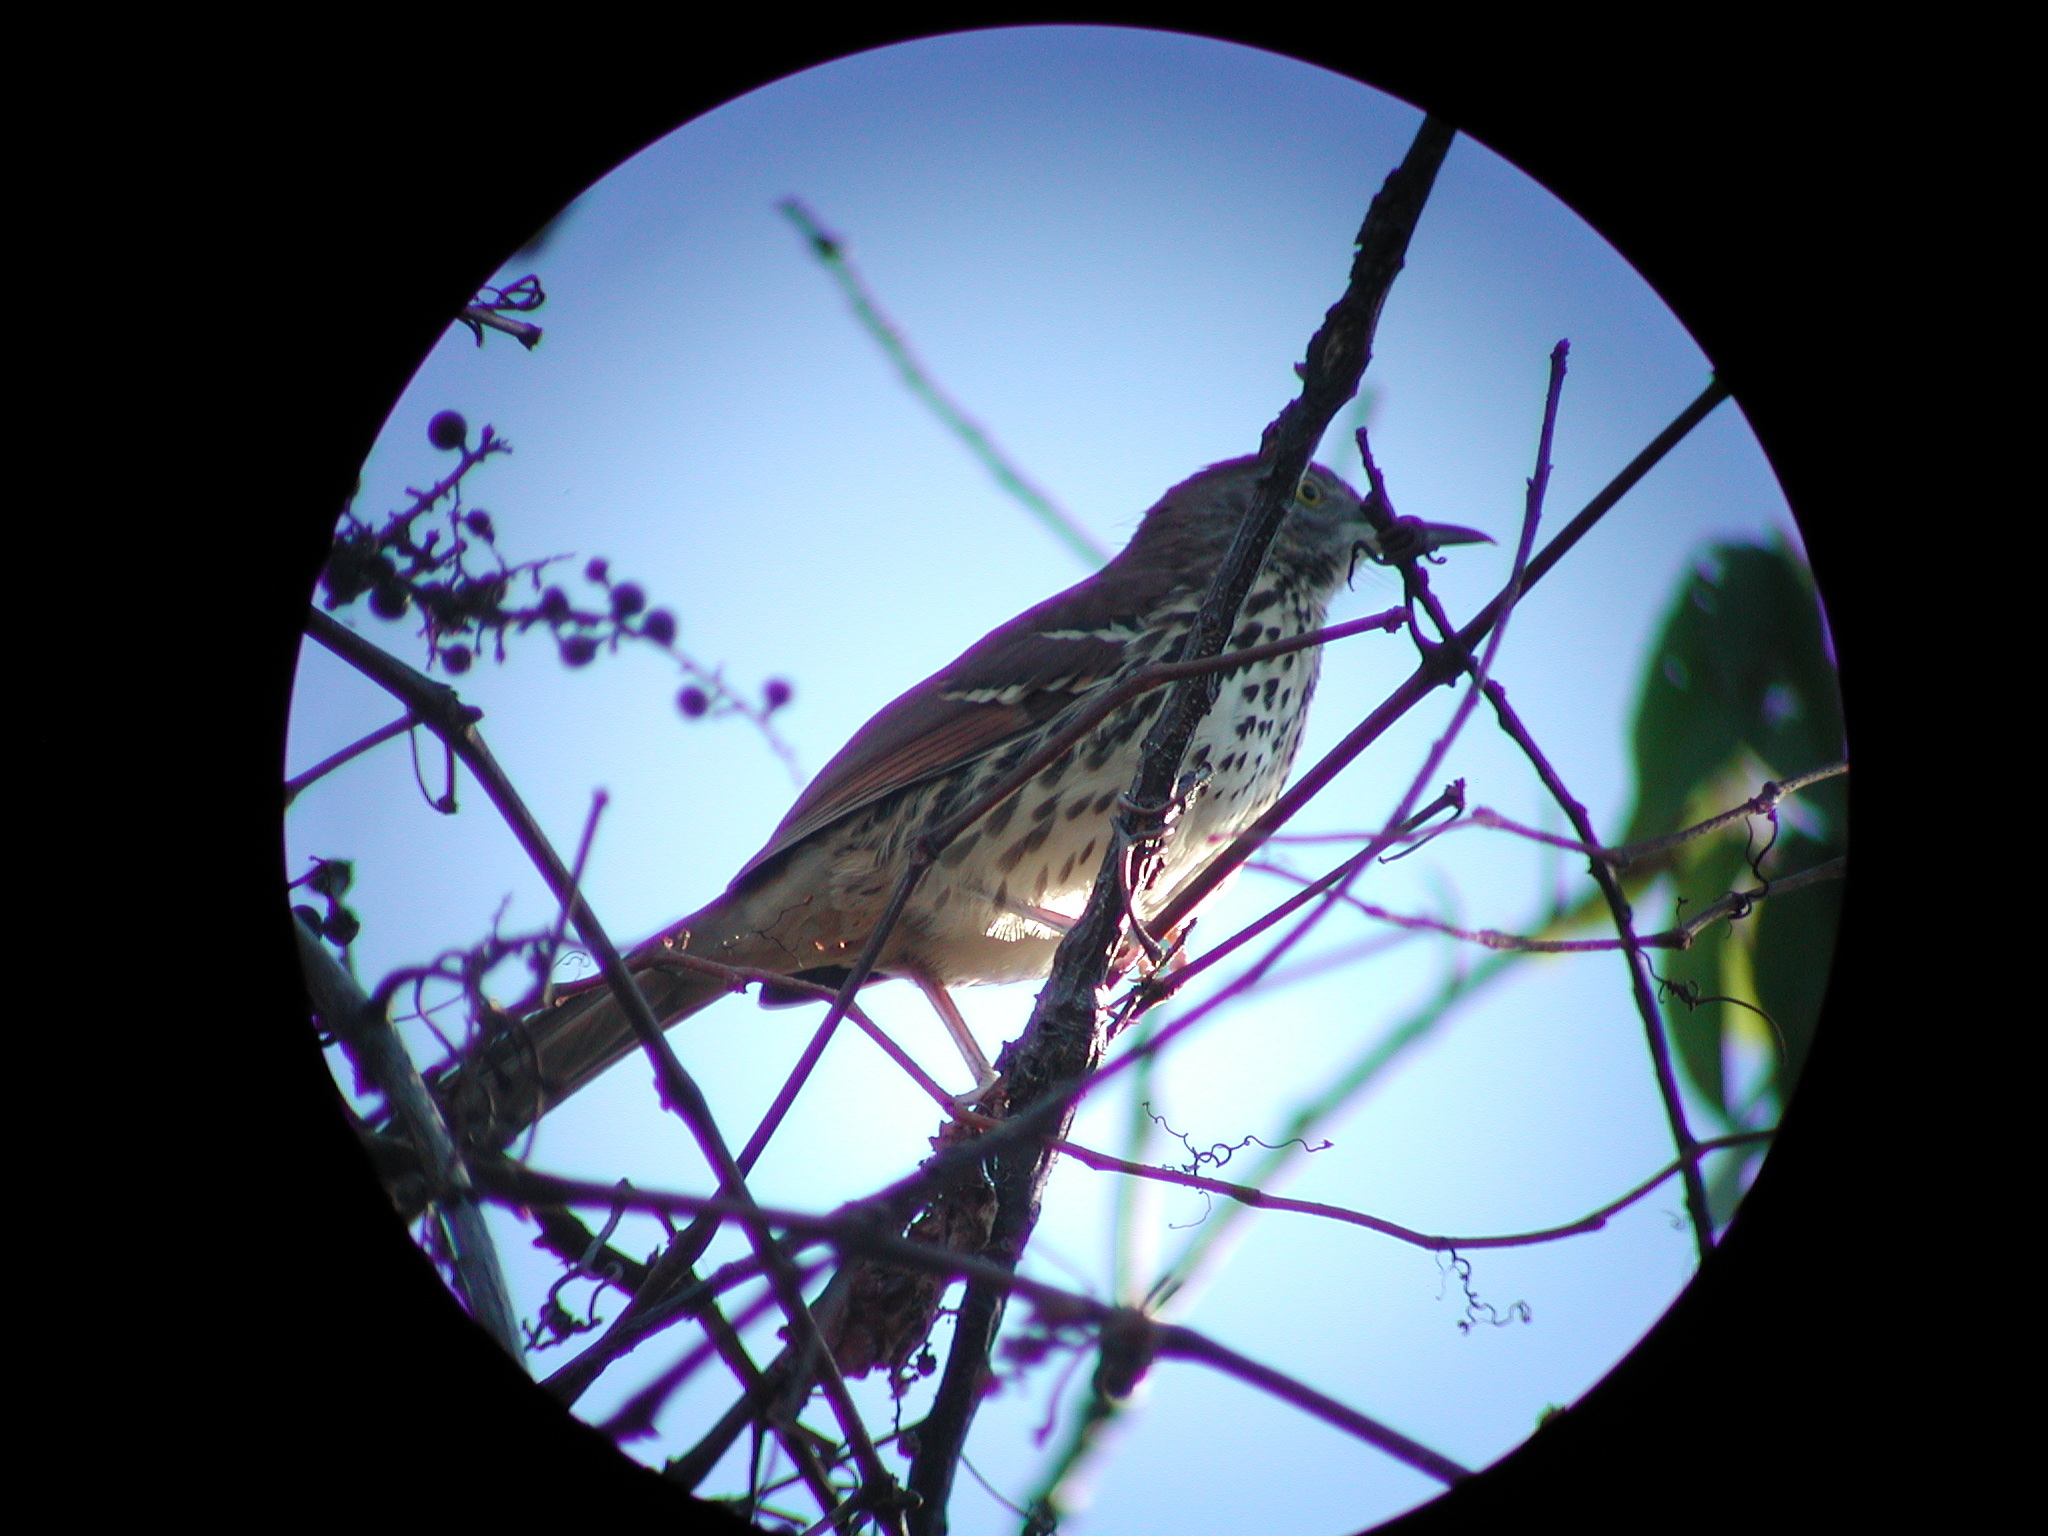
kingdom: Animalia
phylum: Chordata
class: Aves
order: Passeriformes
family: Mimidae
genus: Toxostoma
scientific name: Toxostoma rufum
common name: Brown thrasher
